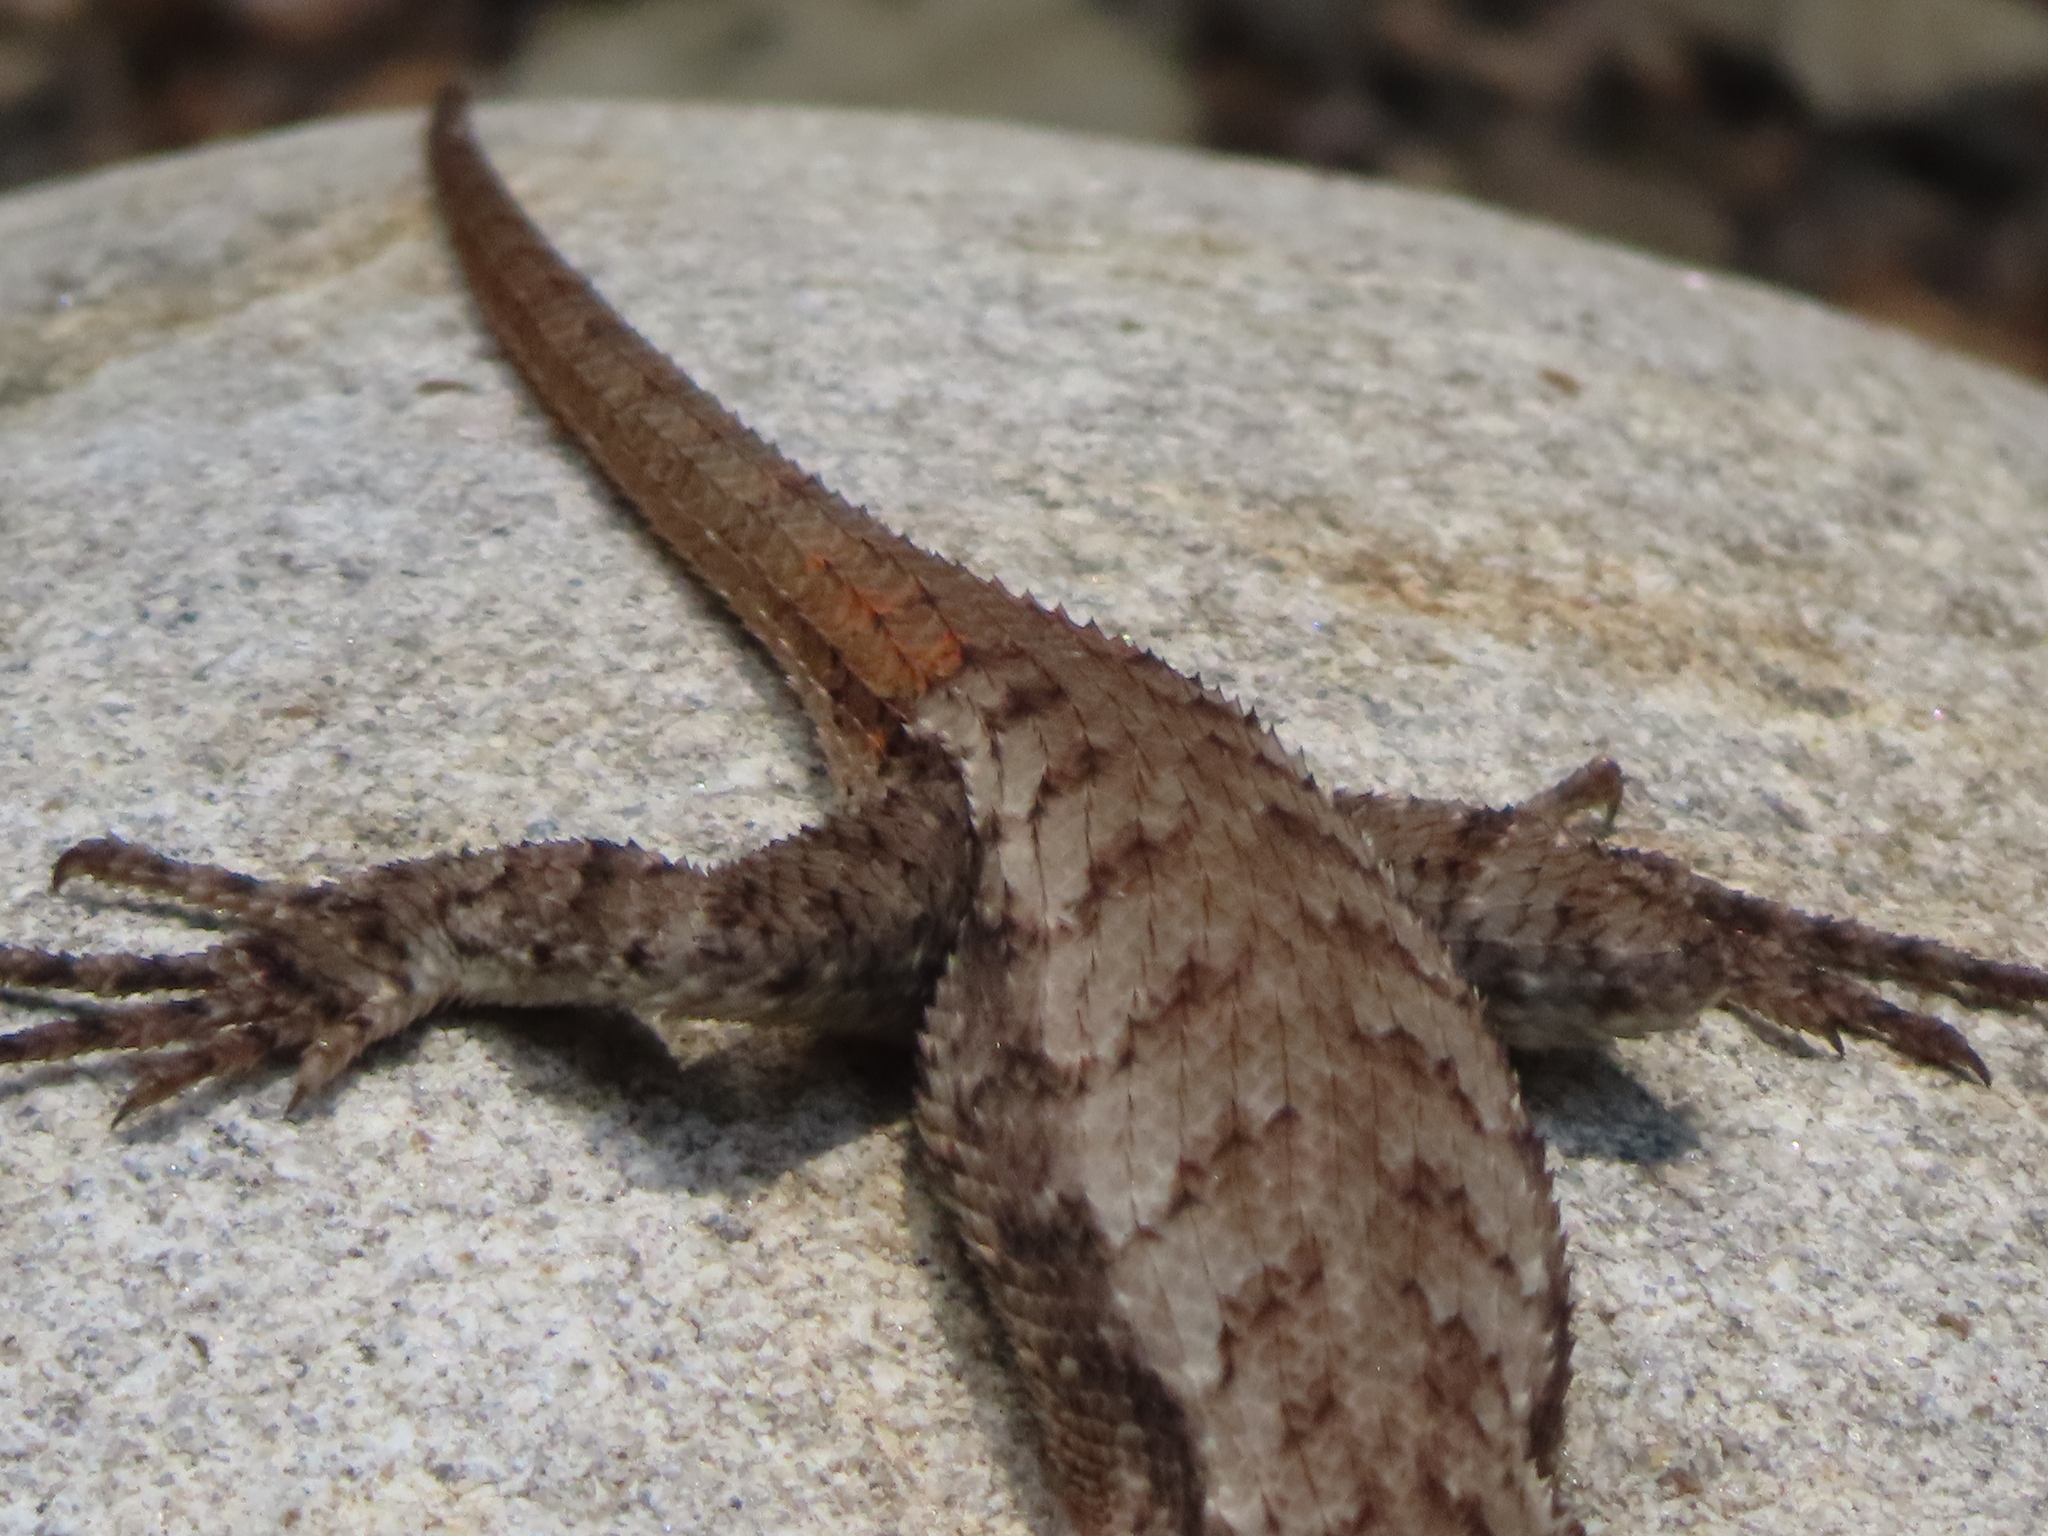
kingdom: Animalia
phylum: Chordata
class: Squamata
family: Phrynosomatidae
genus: Sceloporus
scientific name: Sceloporus undulatus
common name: Eastern fence lizard
